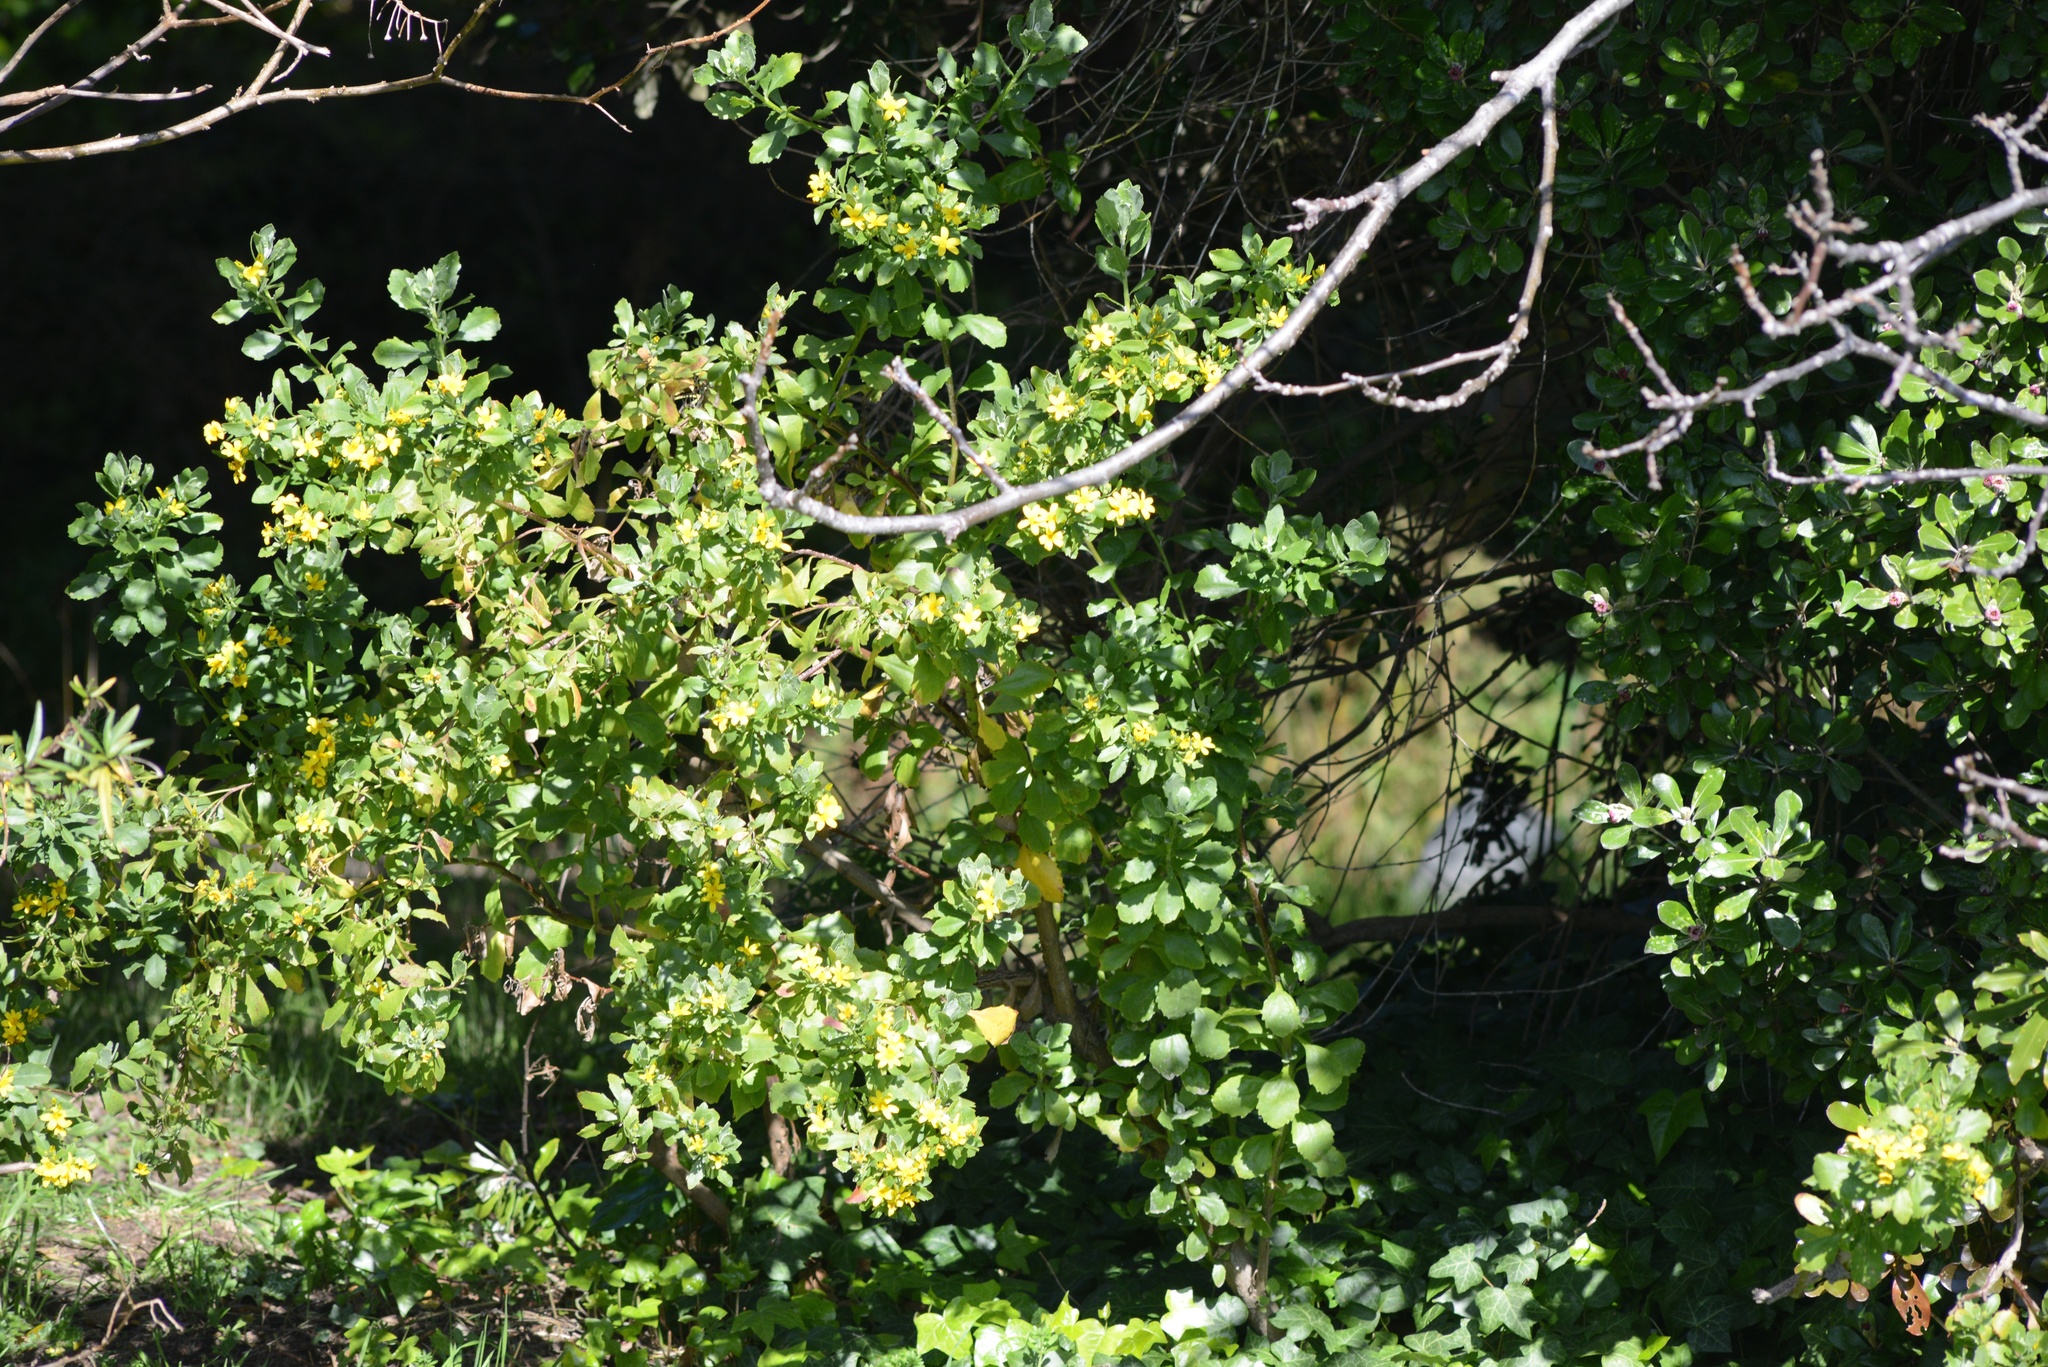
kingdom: Plantae
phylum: Tracheophyta
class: Magnoliopsida
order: Asterales
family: Asteraceae
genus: Osteospermum
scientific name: Osteospermum moniliferum
